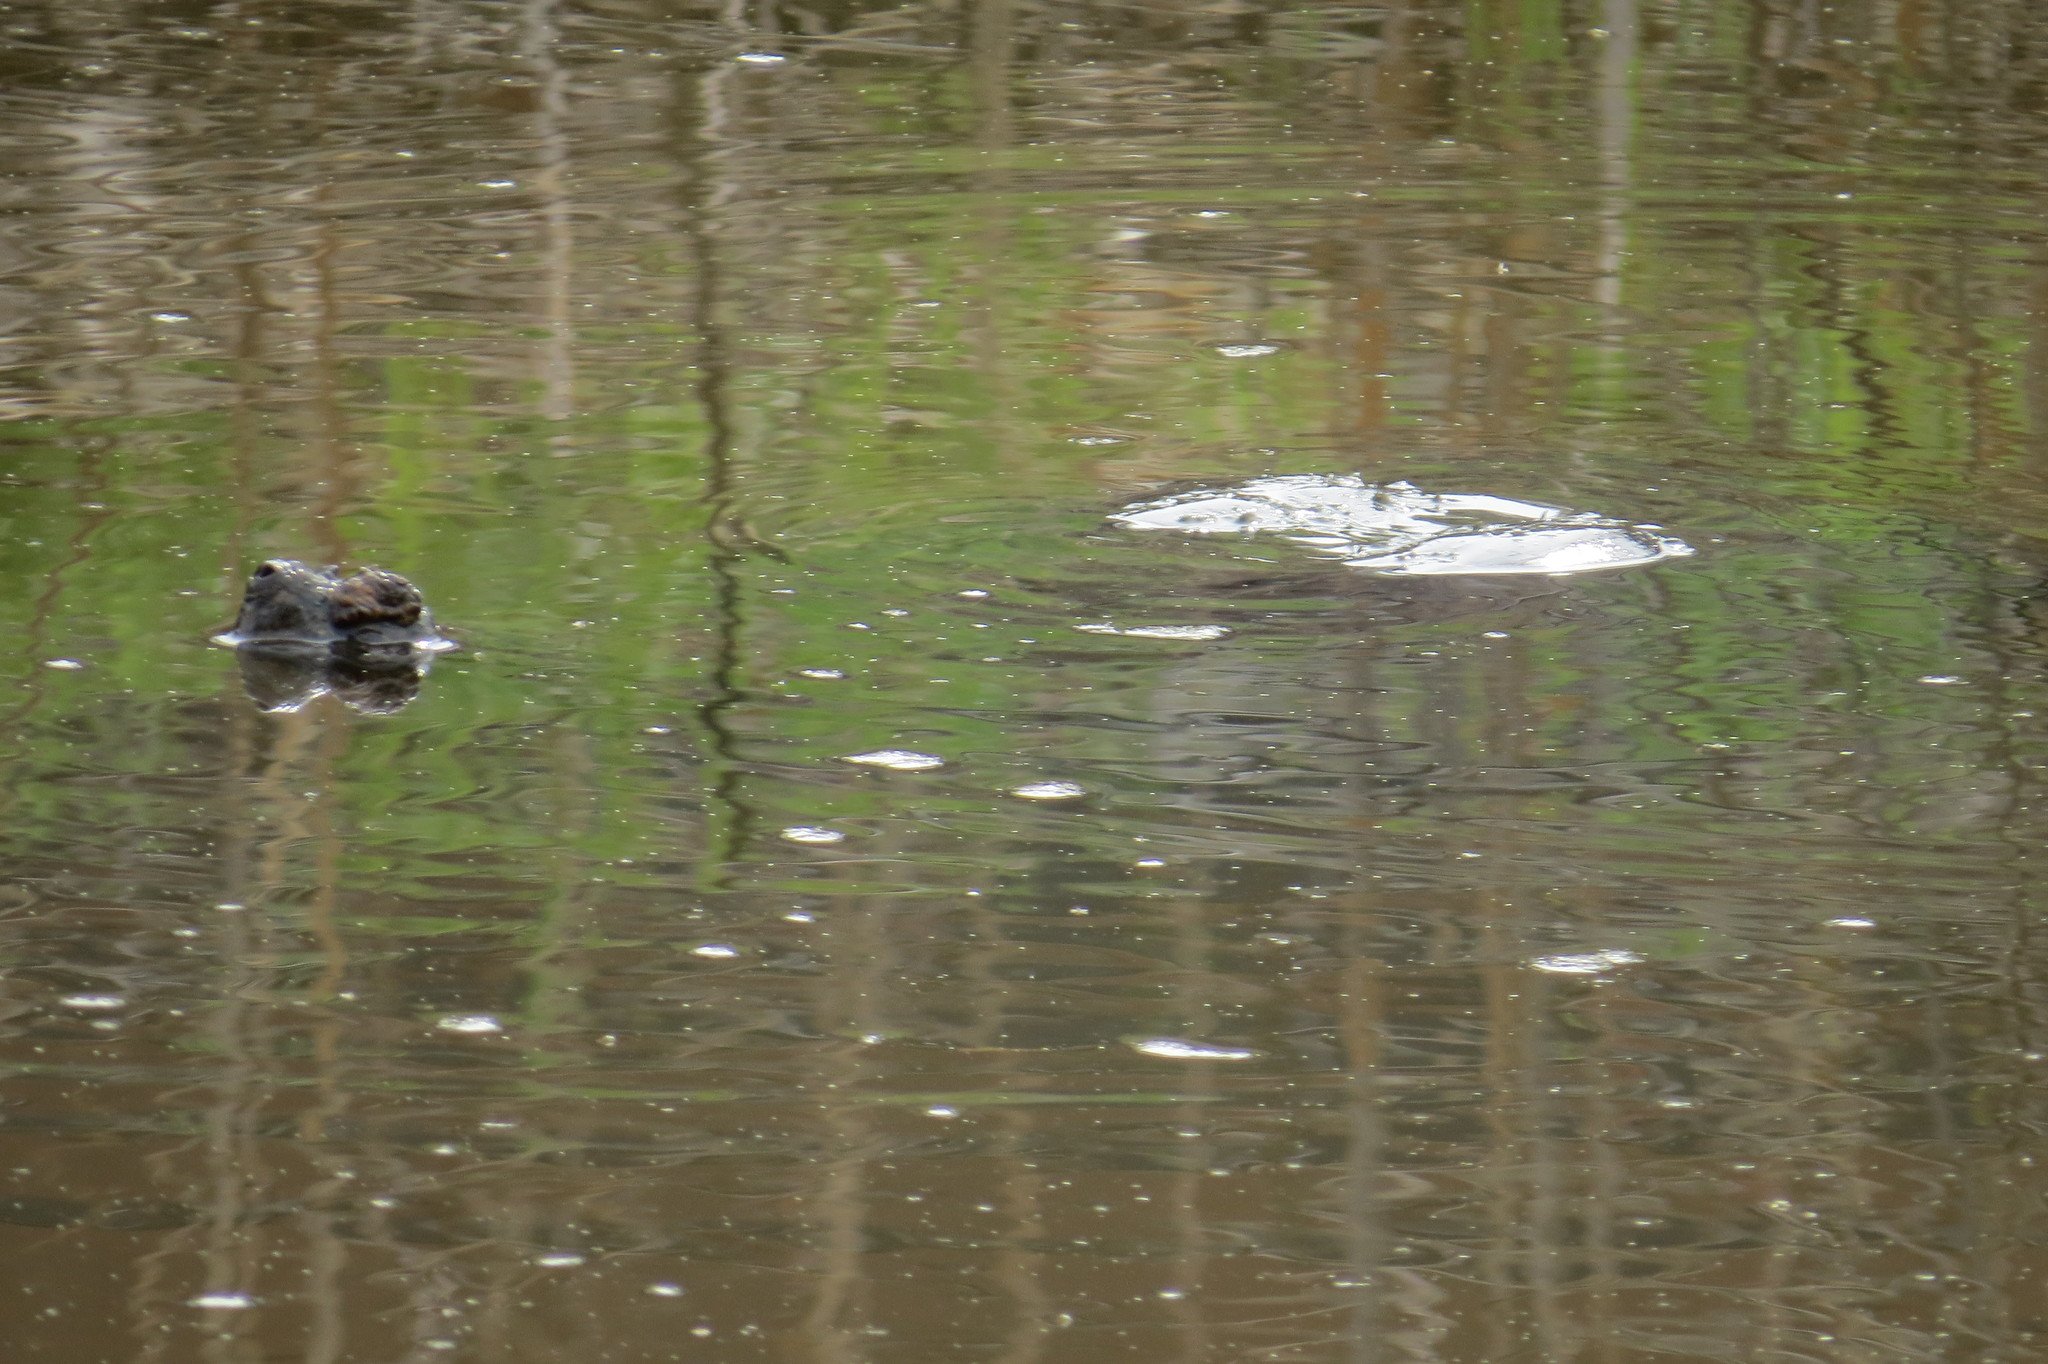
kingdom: Animalia
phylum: Chordata
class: Testudines
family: Chelydridae
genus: Chelydra
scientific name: Chelydra serpentina
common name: Common snapping turtle
